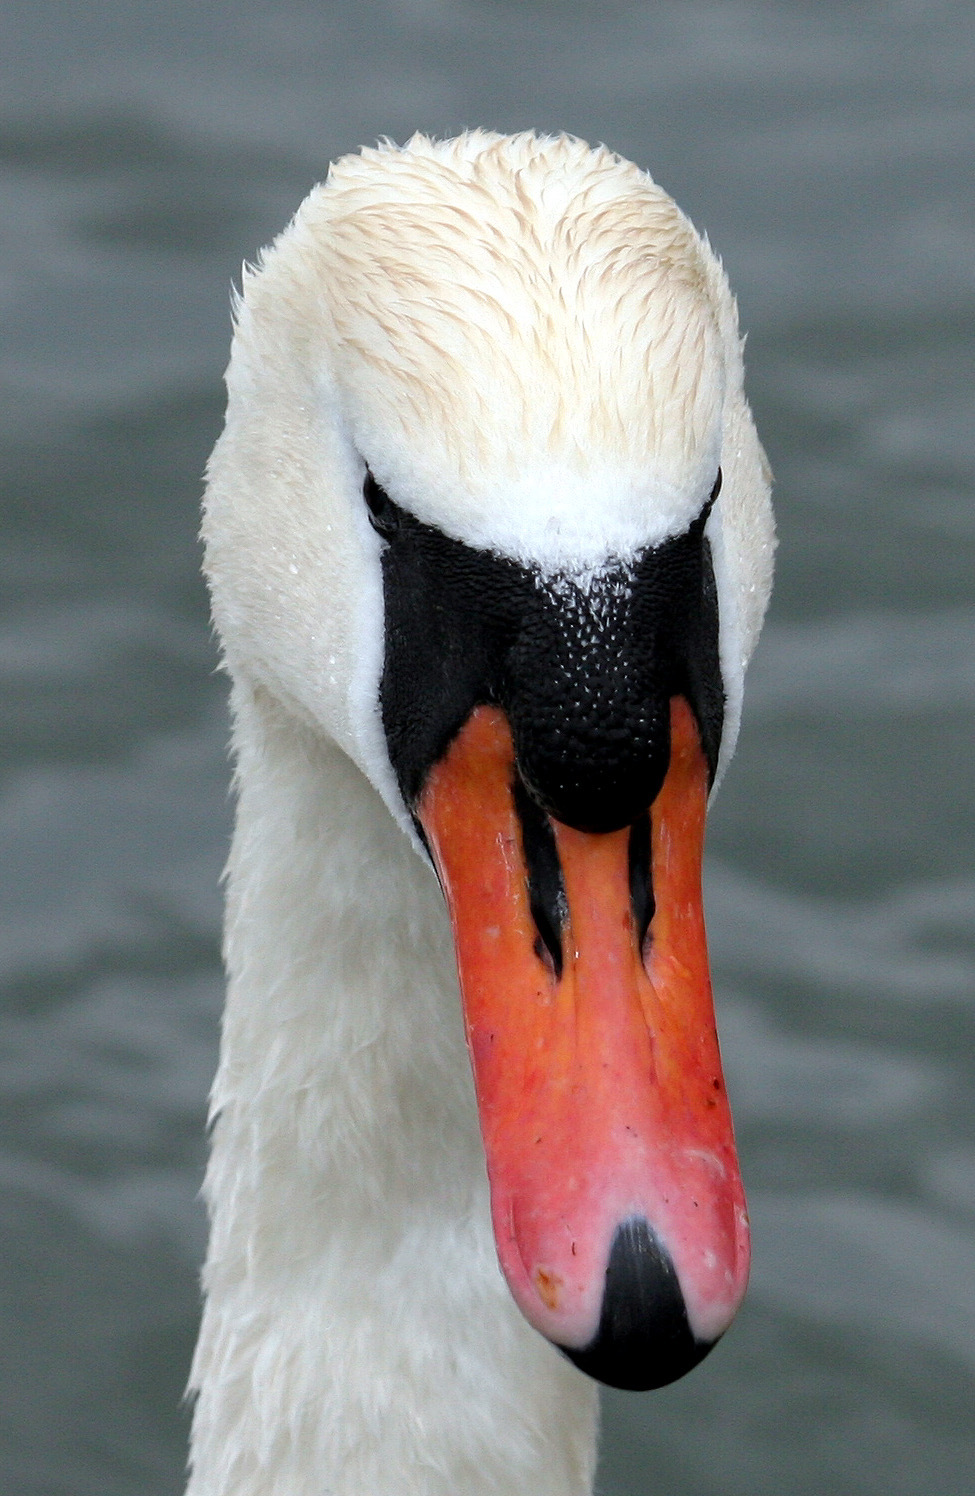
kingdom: Animalia
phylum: Chordata
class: Aves
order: Anseriformes
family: Anatidae
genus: Cygnus
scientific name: Cygnus olor
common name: Mute swan
